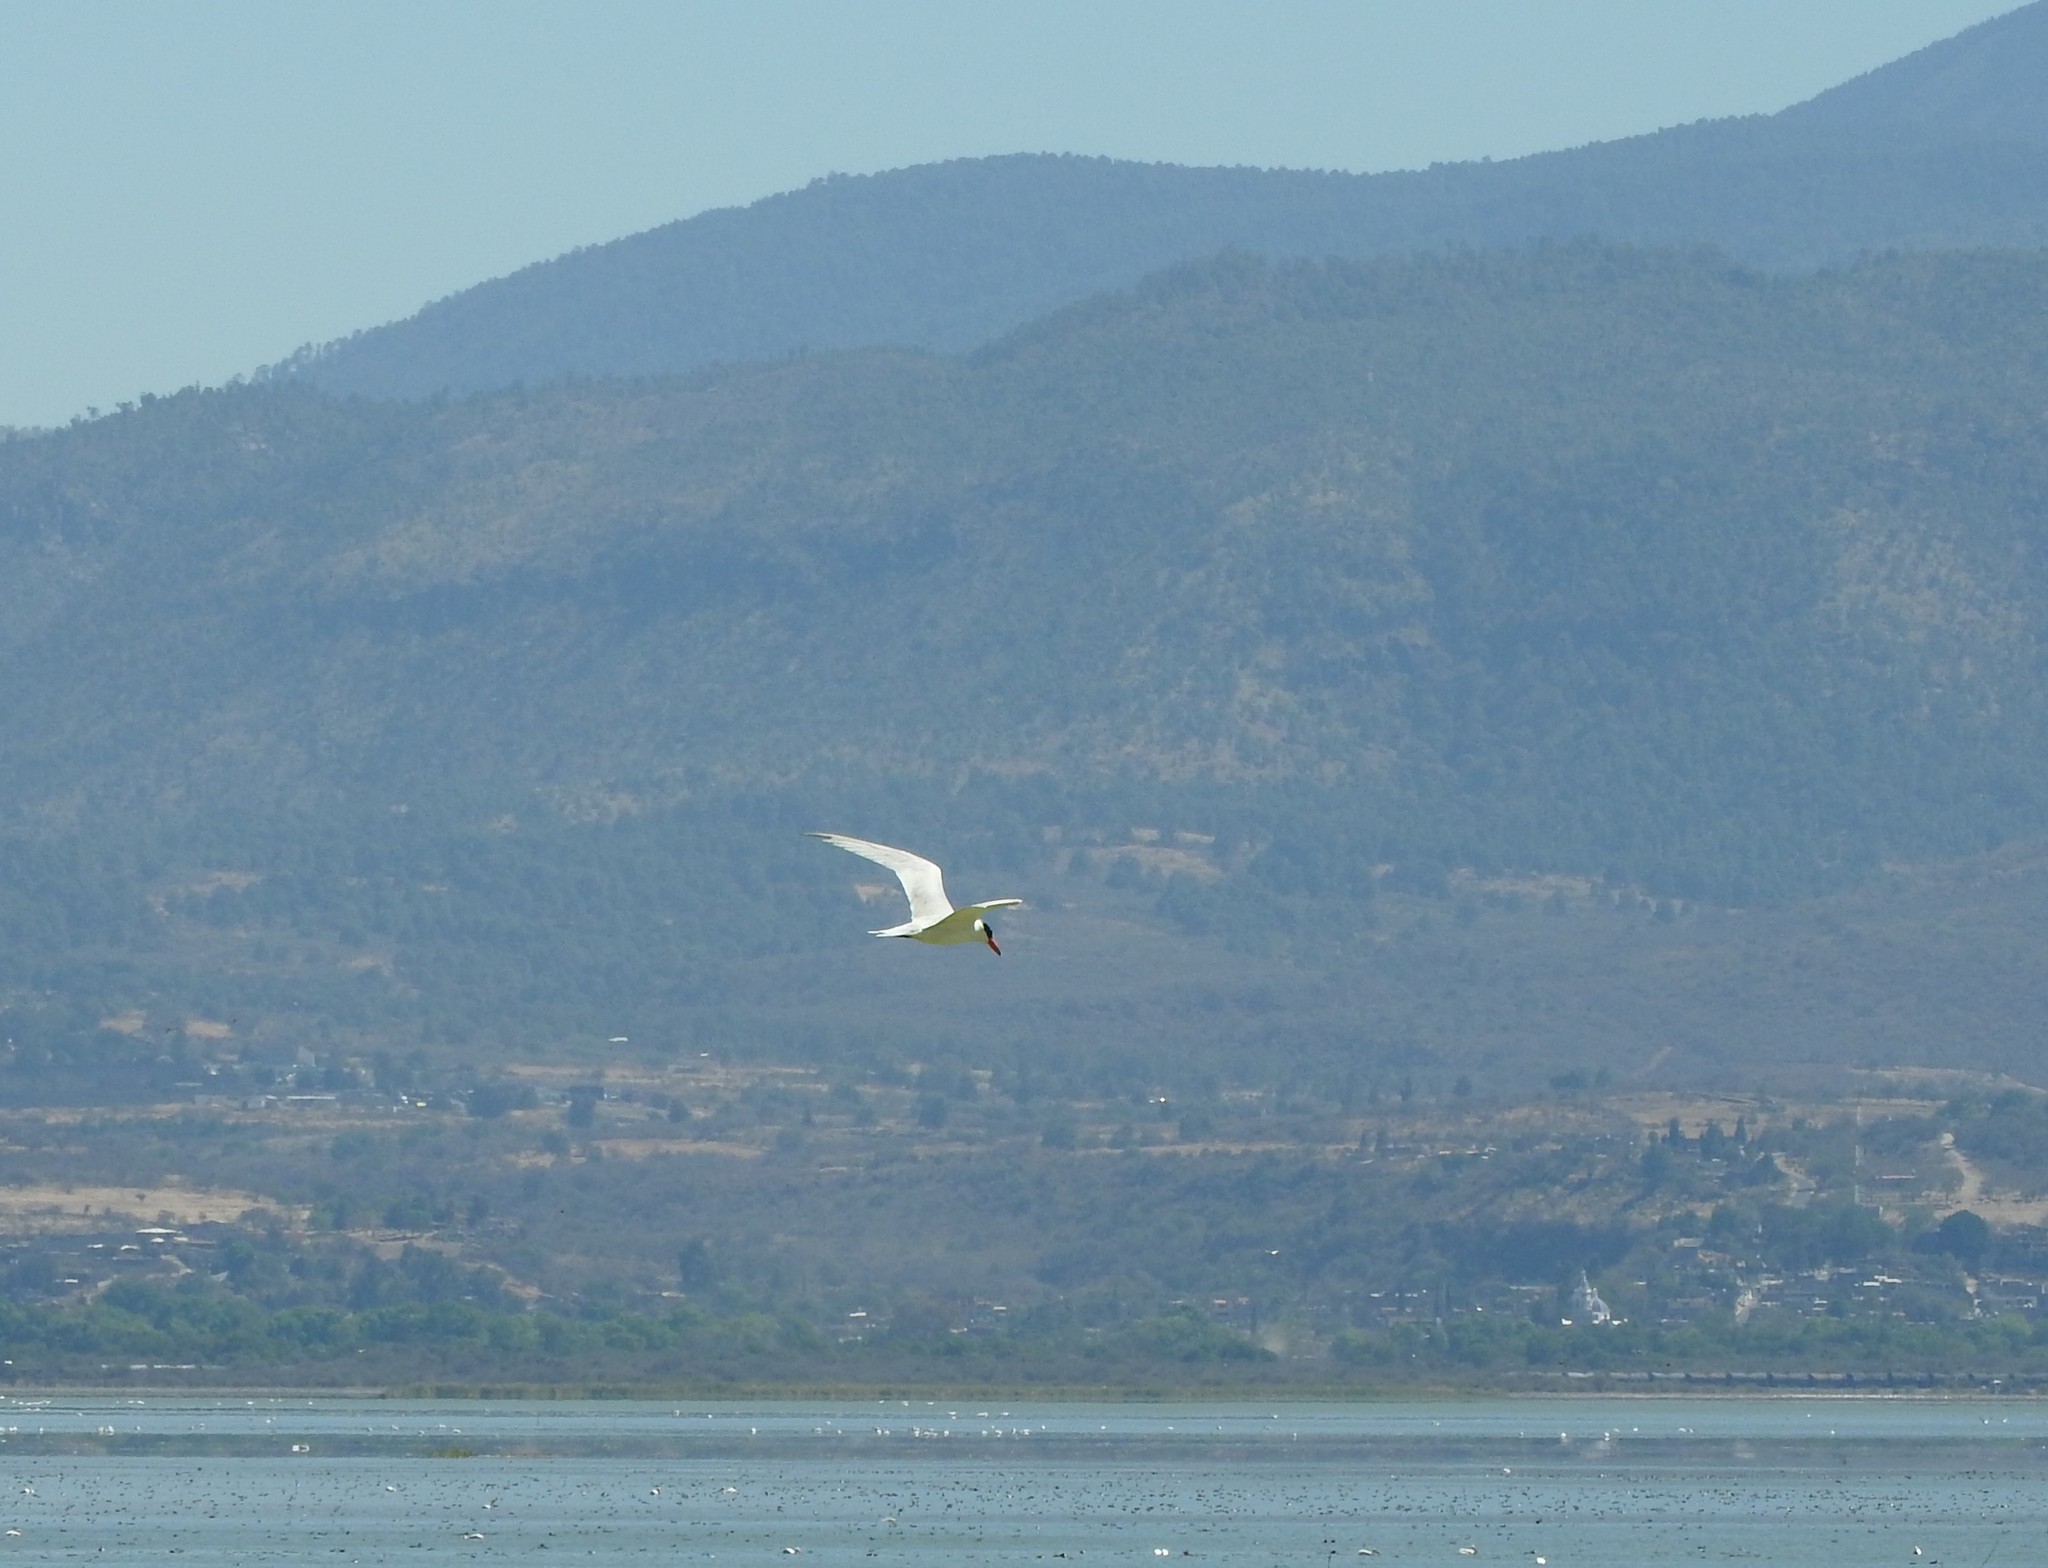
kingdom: Animalia
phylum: Chordata
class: Aves
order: Charadriiformes
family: Laridae
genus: Hydroprogne
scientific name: Hydroprogne caspia
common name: Caspian tern
